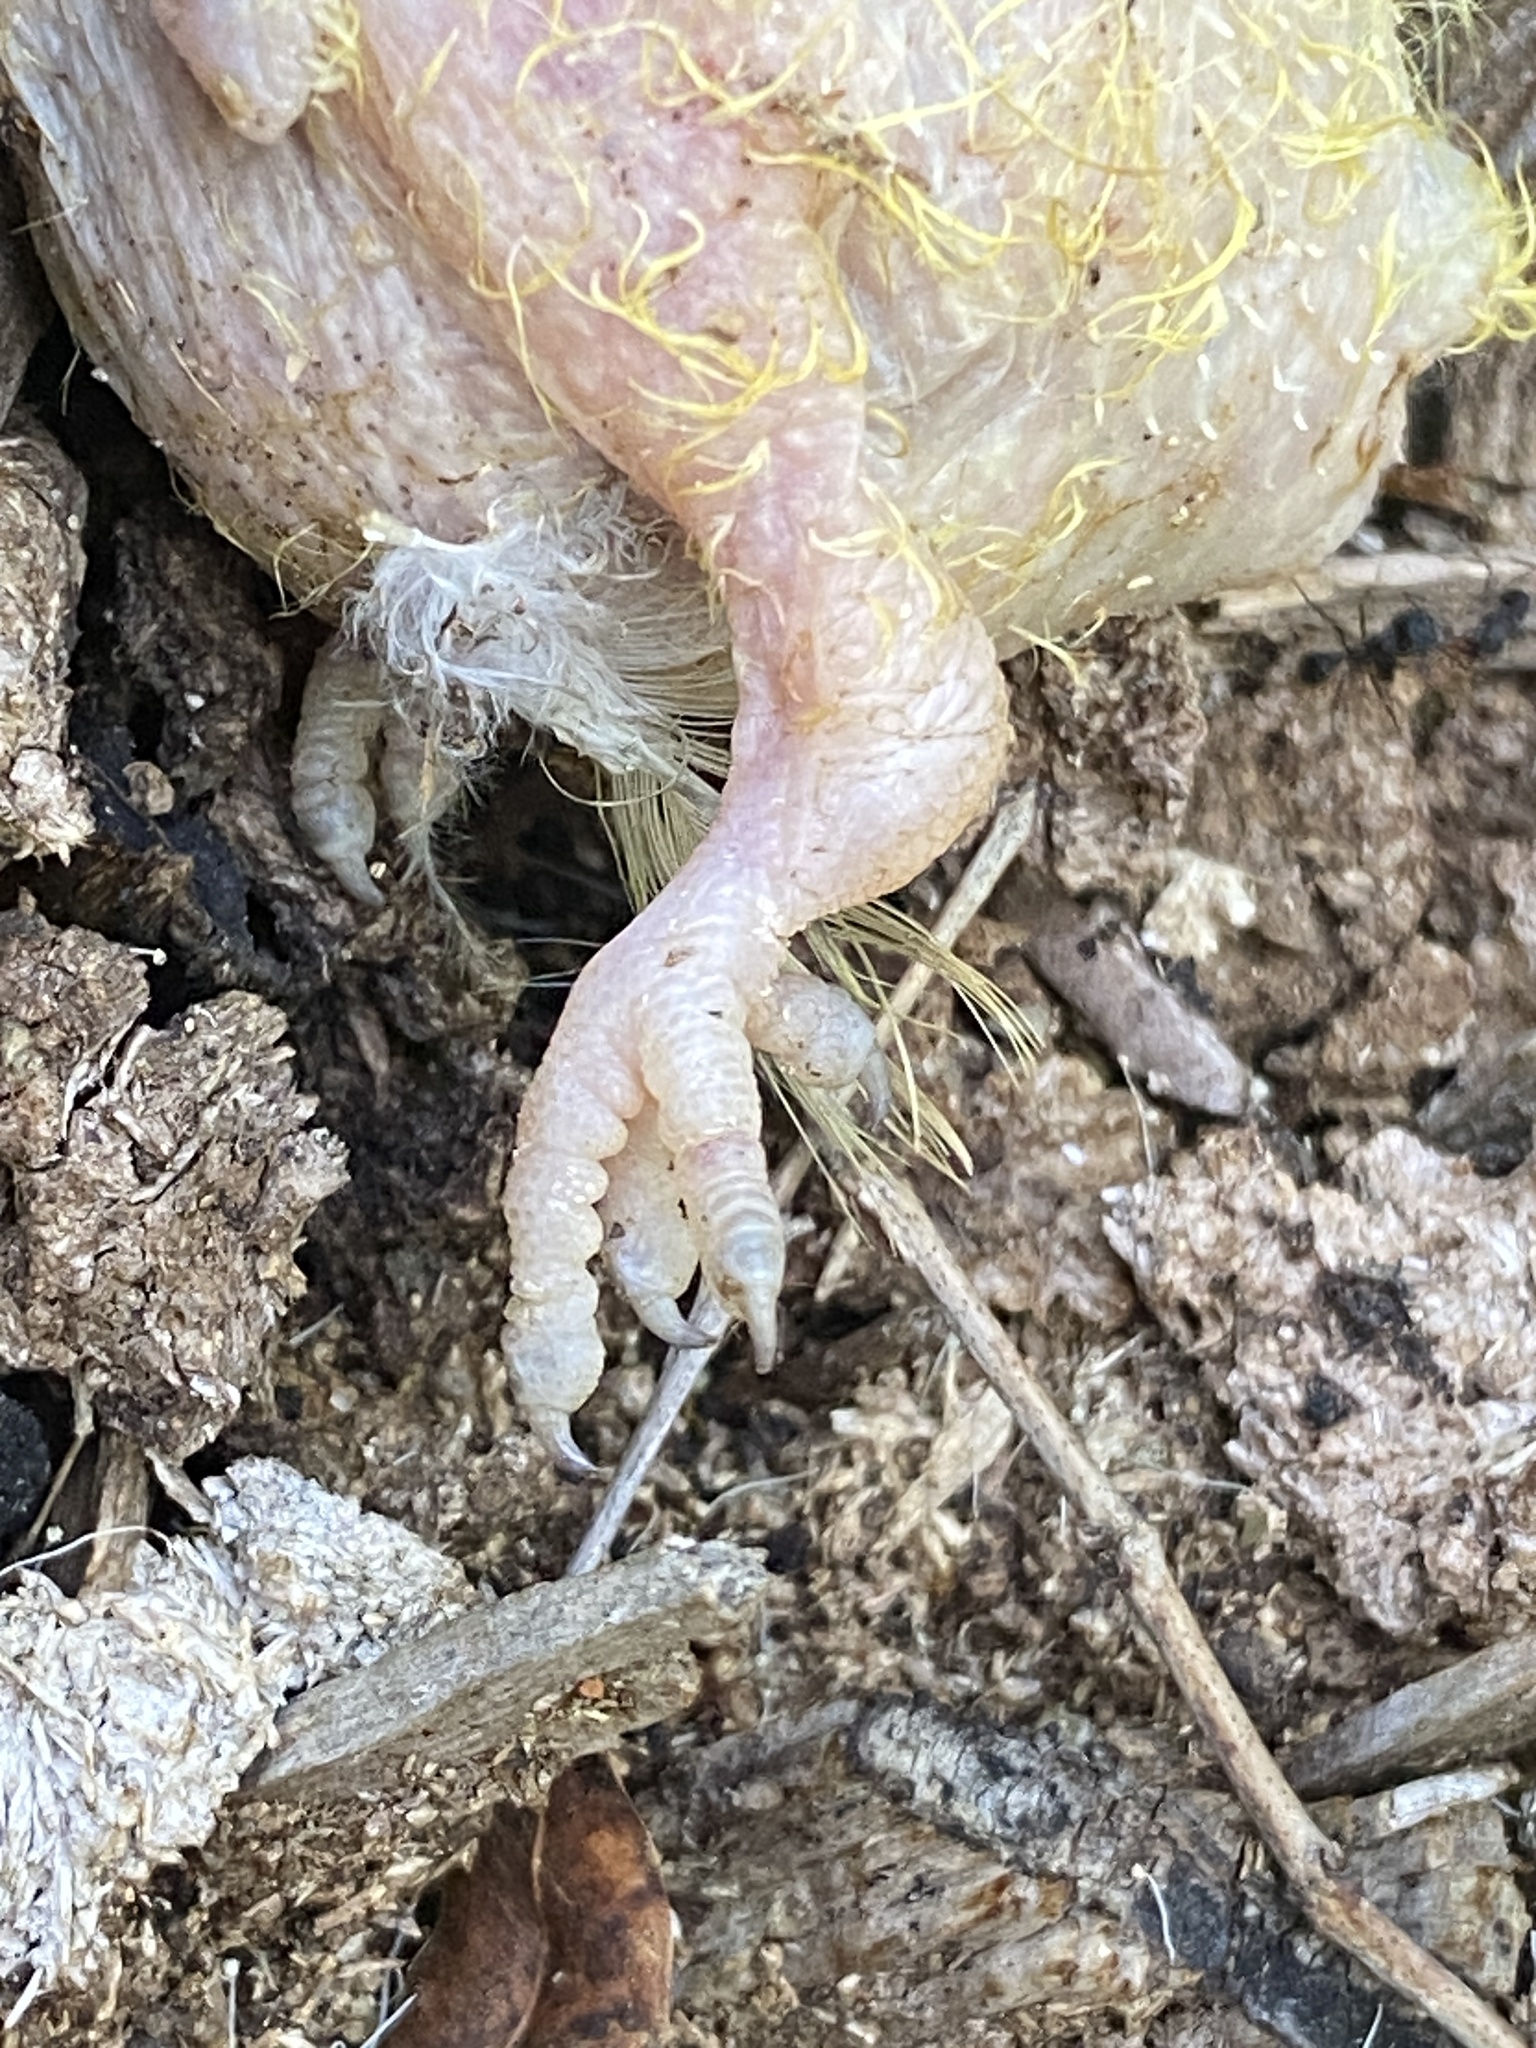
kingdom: Animalia
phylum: Chordata
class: Aves
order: Psittaciformes
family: Psittacidae
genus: Myiopsitta
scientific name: Myiopsitta monachus
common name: Monk parakeet
